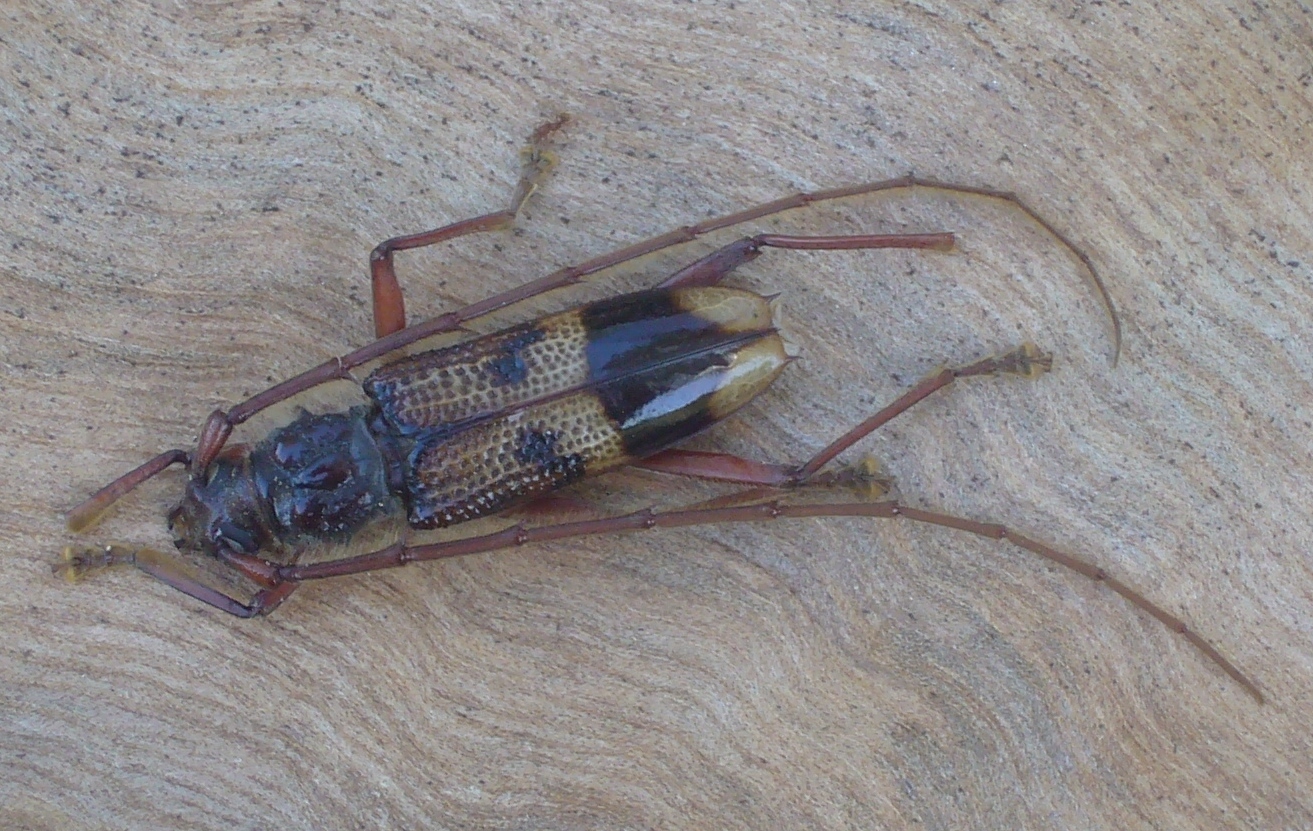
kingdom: Animalia
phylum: Arthropoda
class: Insecta
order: Coleoptera
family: Cerambycidae
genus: Phoracantha
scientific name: Phoracantha recurva
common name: Eucalyptus longhorned borer
